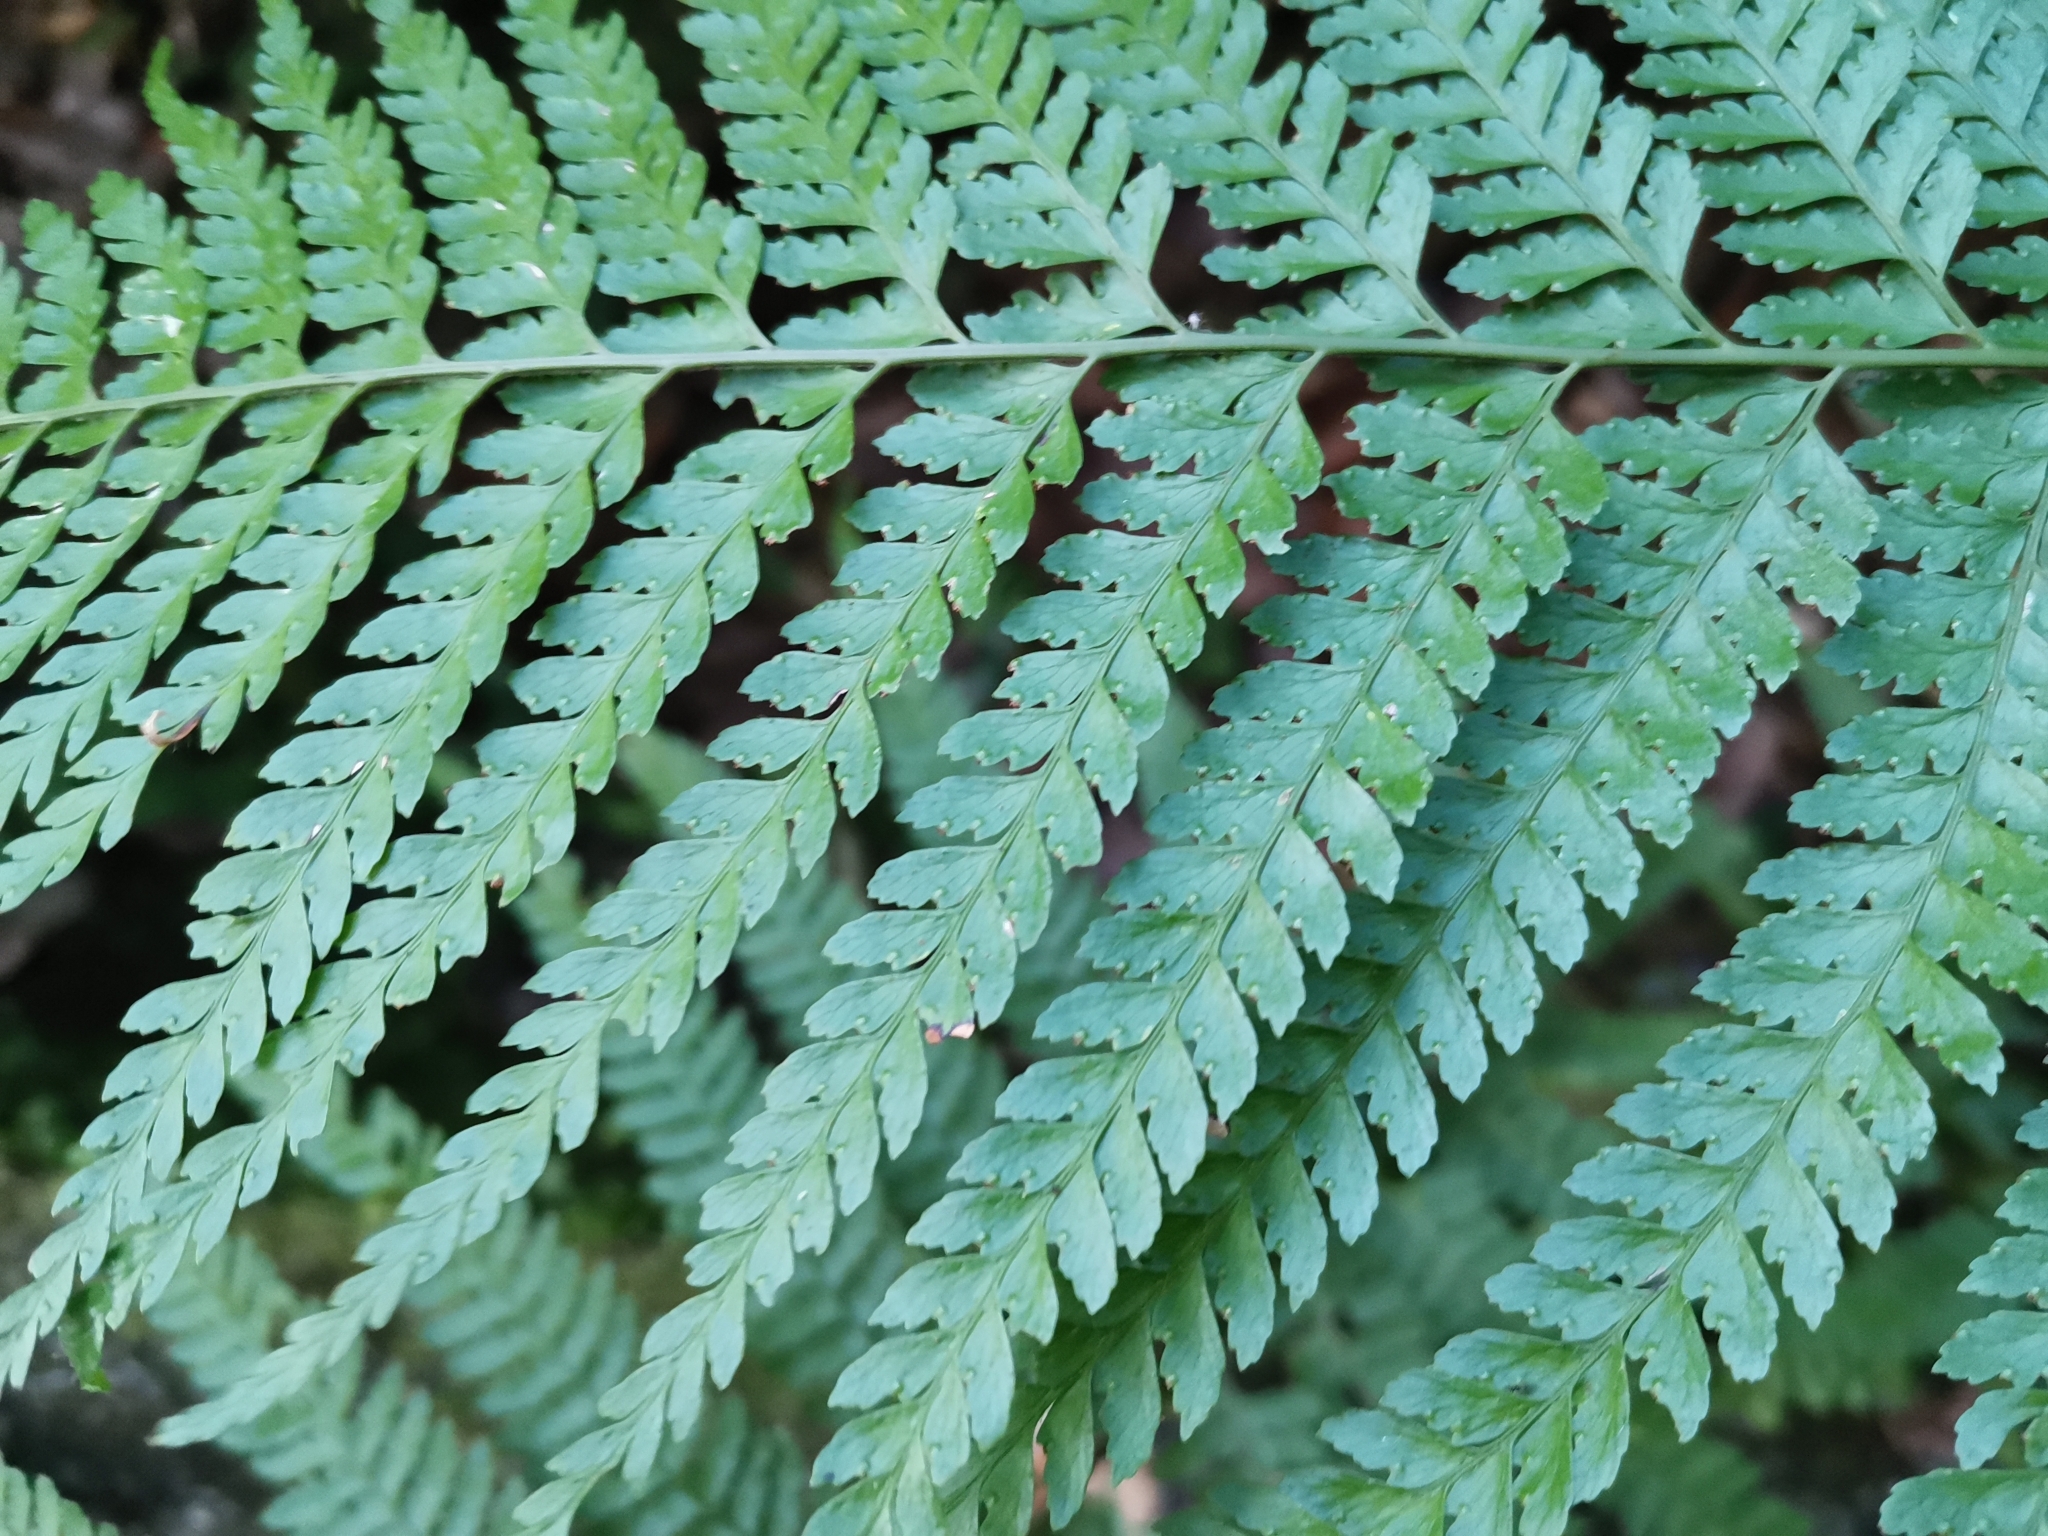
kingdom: Plantae
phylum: Tracheophyta
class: Polypodiopsida
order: Polypodiales
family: Dennstaedtiaceae
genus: Microlepia
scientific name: Microlepia strigosa
